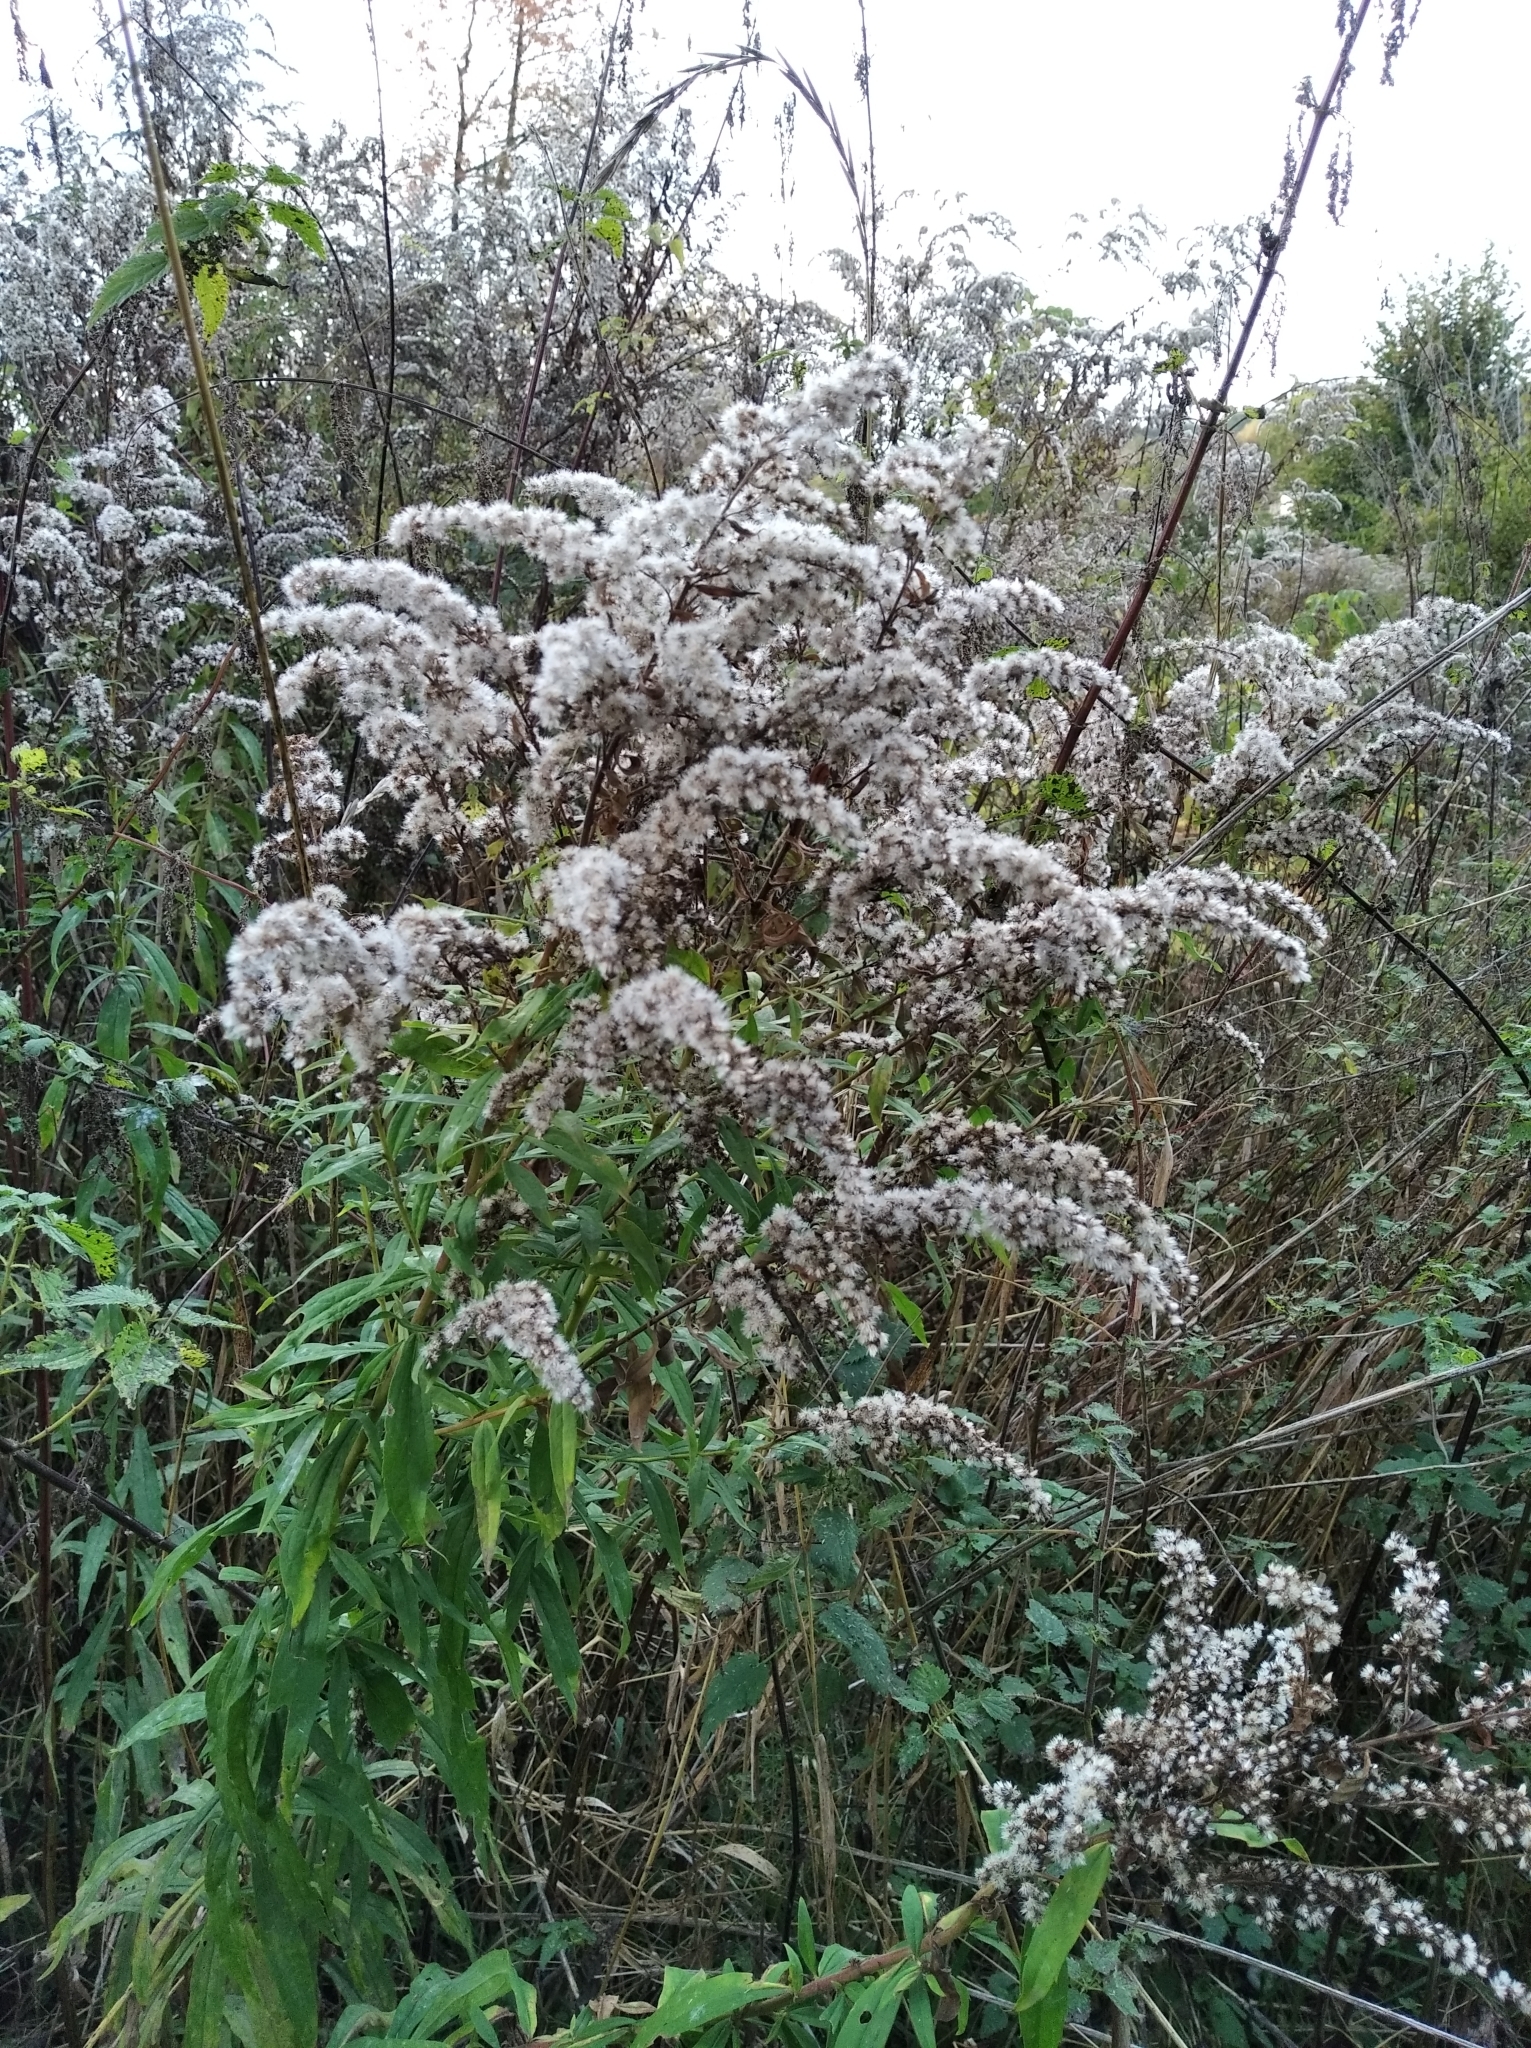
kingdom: Plantae
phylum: Tracheophyta
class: Magnoliopsida
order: Asterales
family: Asteraceae
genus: Solidago
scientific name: Solidago canadensis
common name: Canada goldenrod
